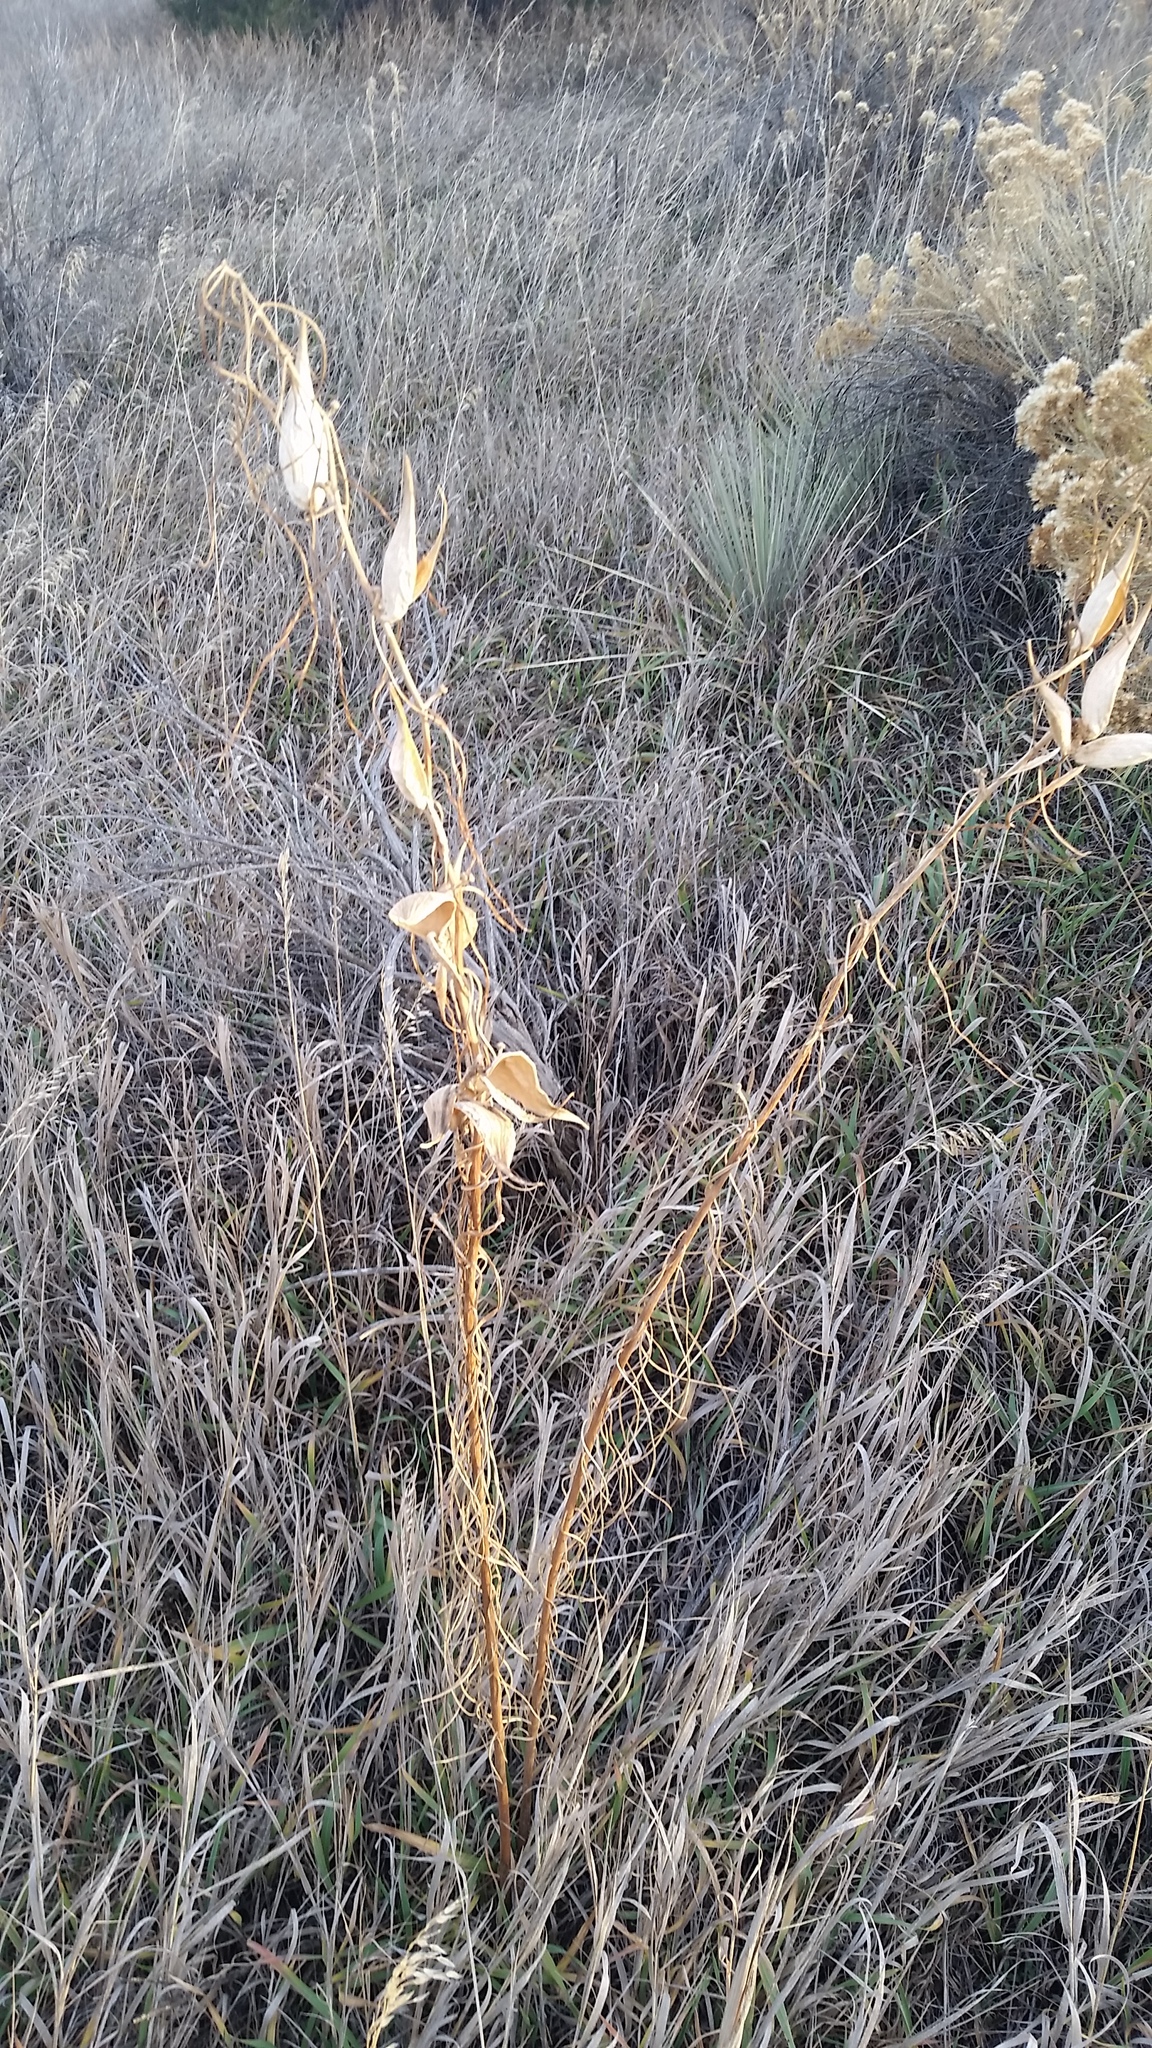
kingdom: Plantae
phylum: Tracheophyta
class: Magnoliopsida
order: Gentianales
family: Apocynaceae
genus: Asclepias
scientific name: Asclepias engelmanniana
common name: Engelmann's milkweed
